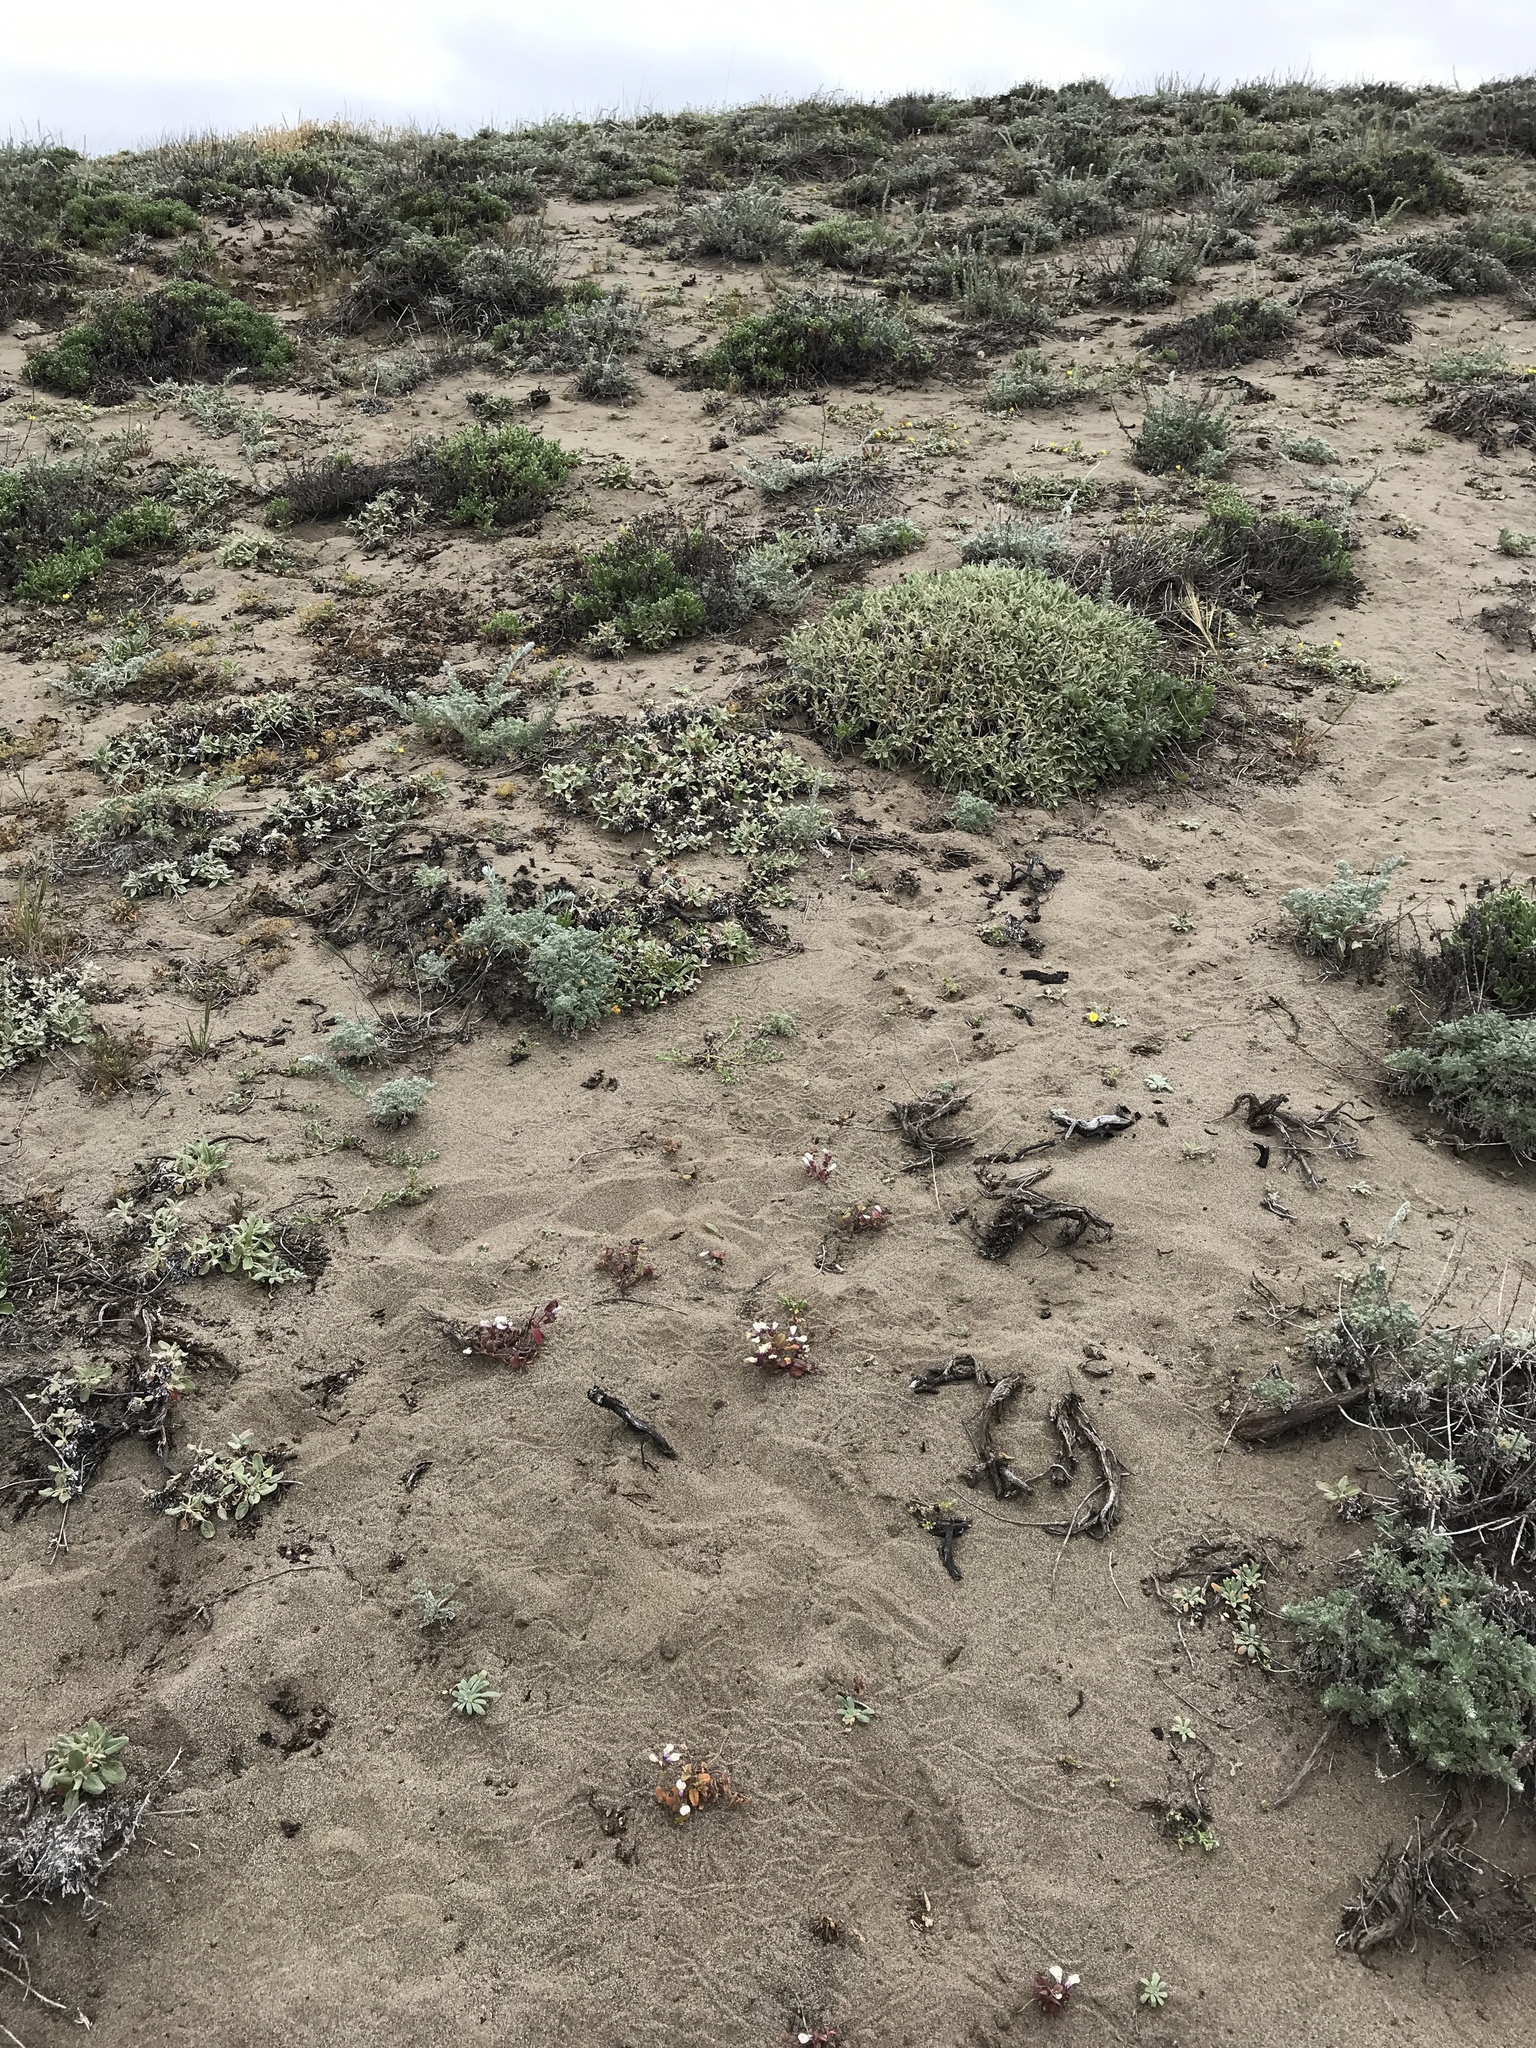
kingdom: Plantae
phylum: Tracheophyta
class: Magnoliopsida
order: Lamiales
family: Plantaginaceae
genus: Collinsia
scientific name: Collinsia corymbosa
